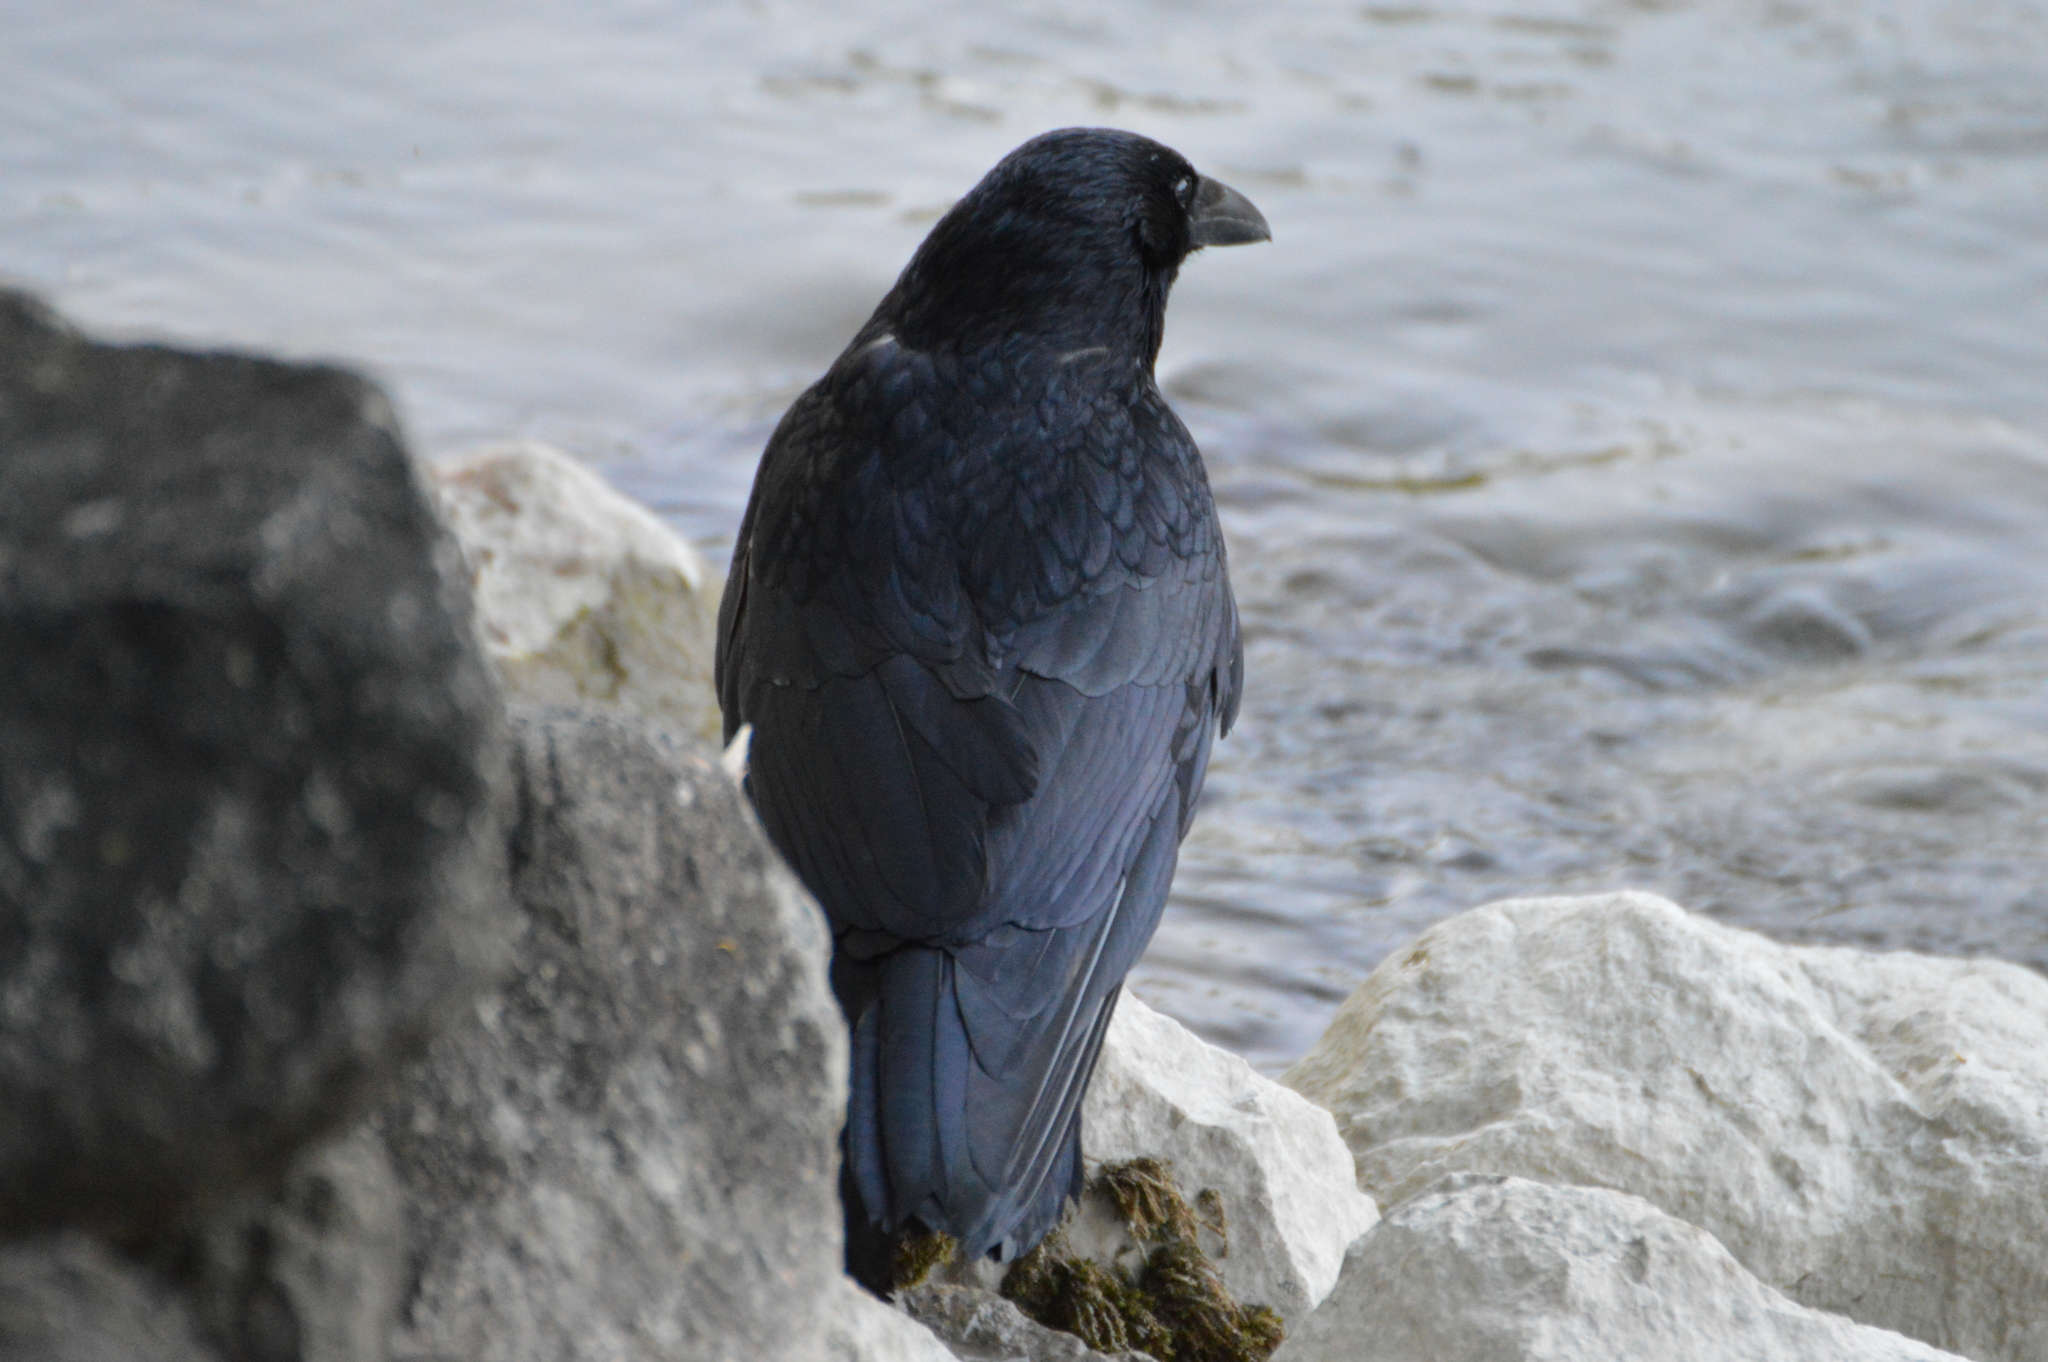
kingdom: Animalia
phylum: Chordata
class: Aves
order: Passeriformes
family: Corvidae
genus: Corvus
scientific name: Corvus corone
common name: Carrion crow
